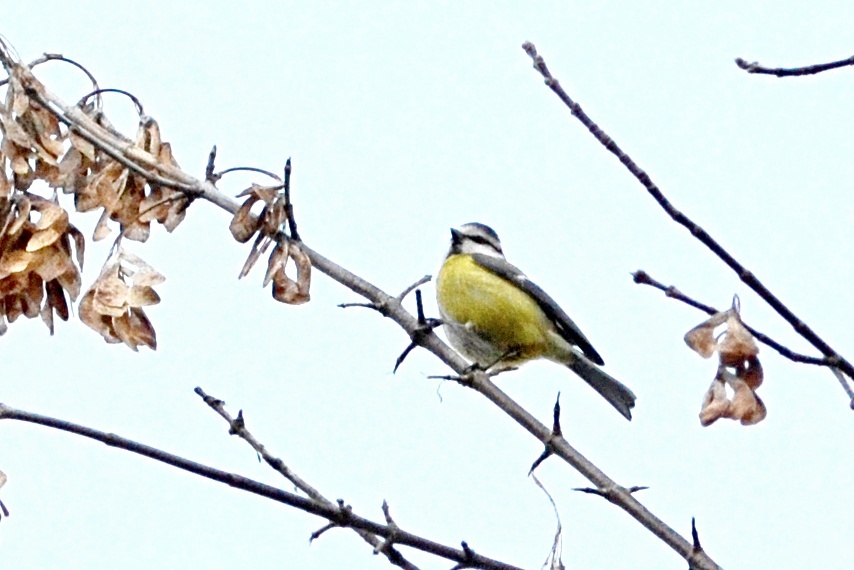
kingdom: Animalia
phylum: Chordata
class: Aves
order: Passeriformes
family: Paridae
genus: Cyanistes
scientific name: Cyanistes caeruleus
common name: Eurasian blue tit
